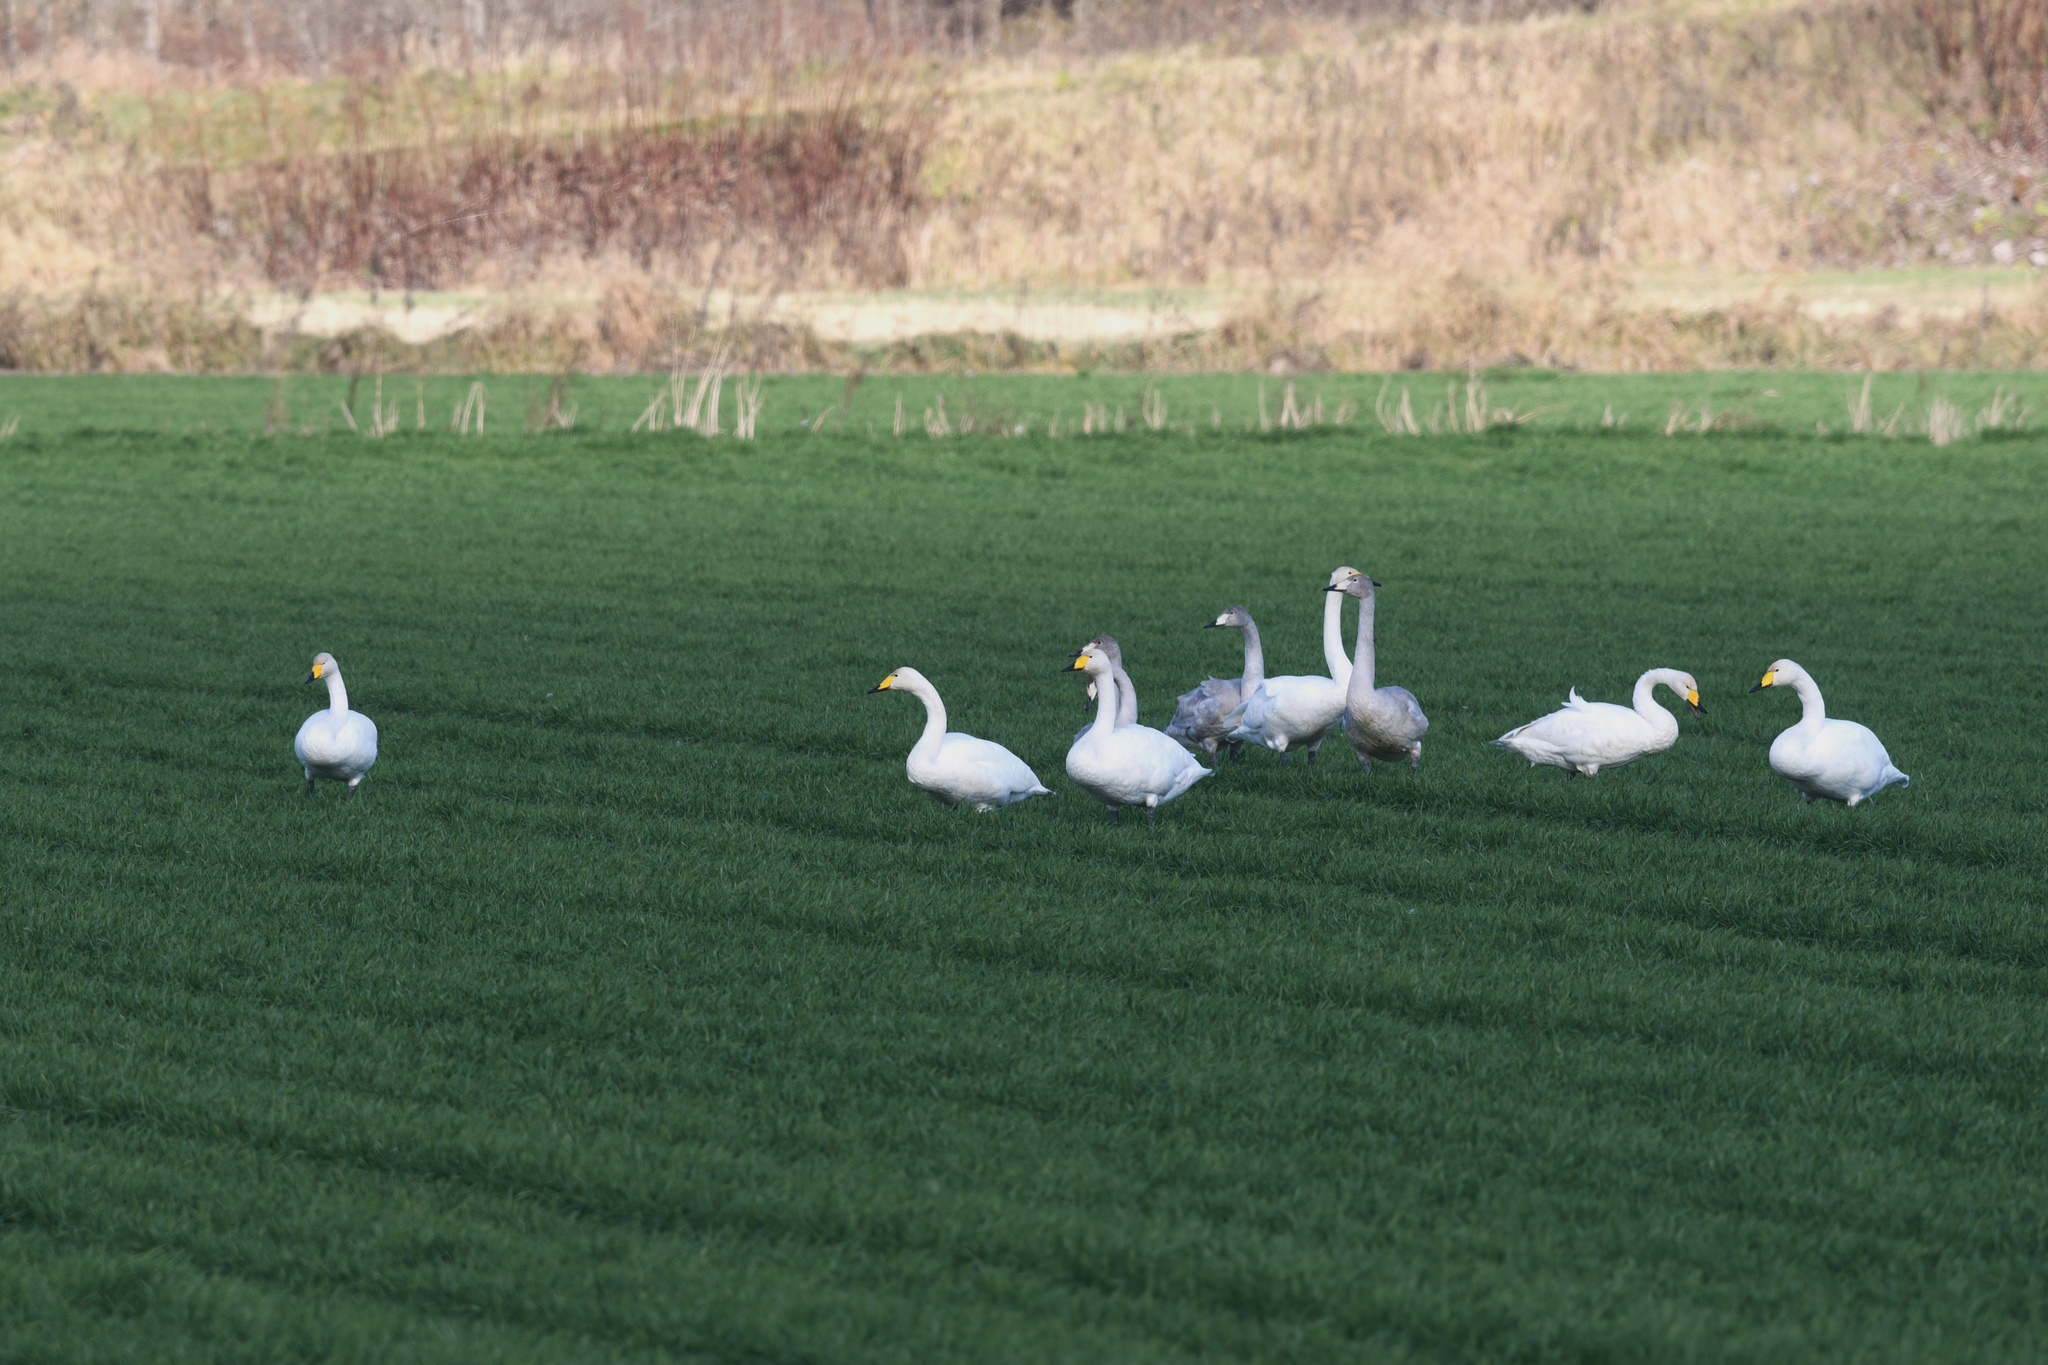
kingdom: Animalia
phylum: Chordata
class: Aves
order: Anseriformes
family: Anatidae
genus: Cygnus
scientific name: Cygnus cygnus
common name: Whooper swan
